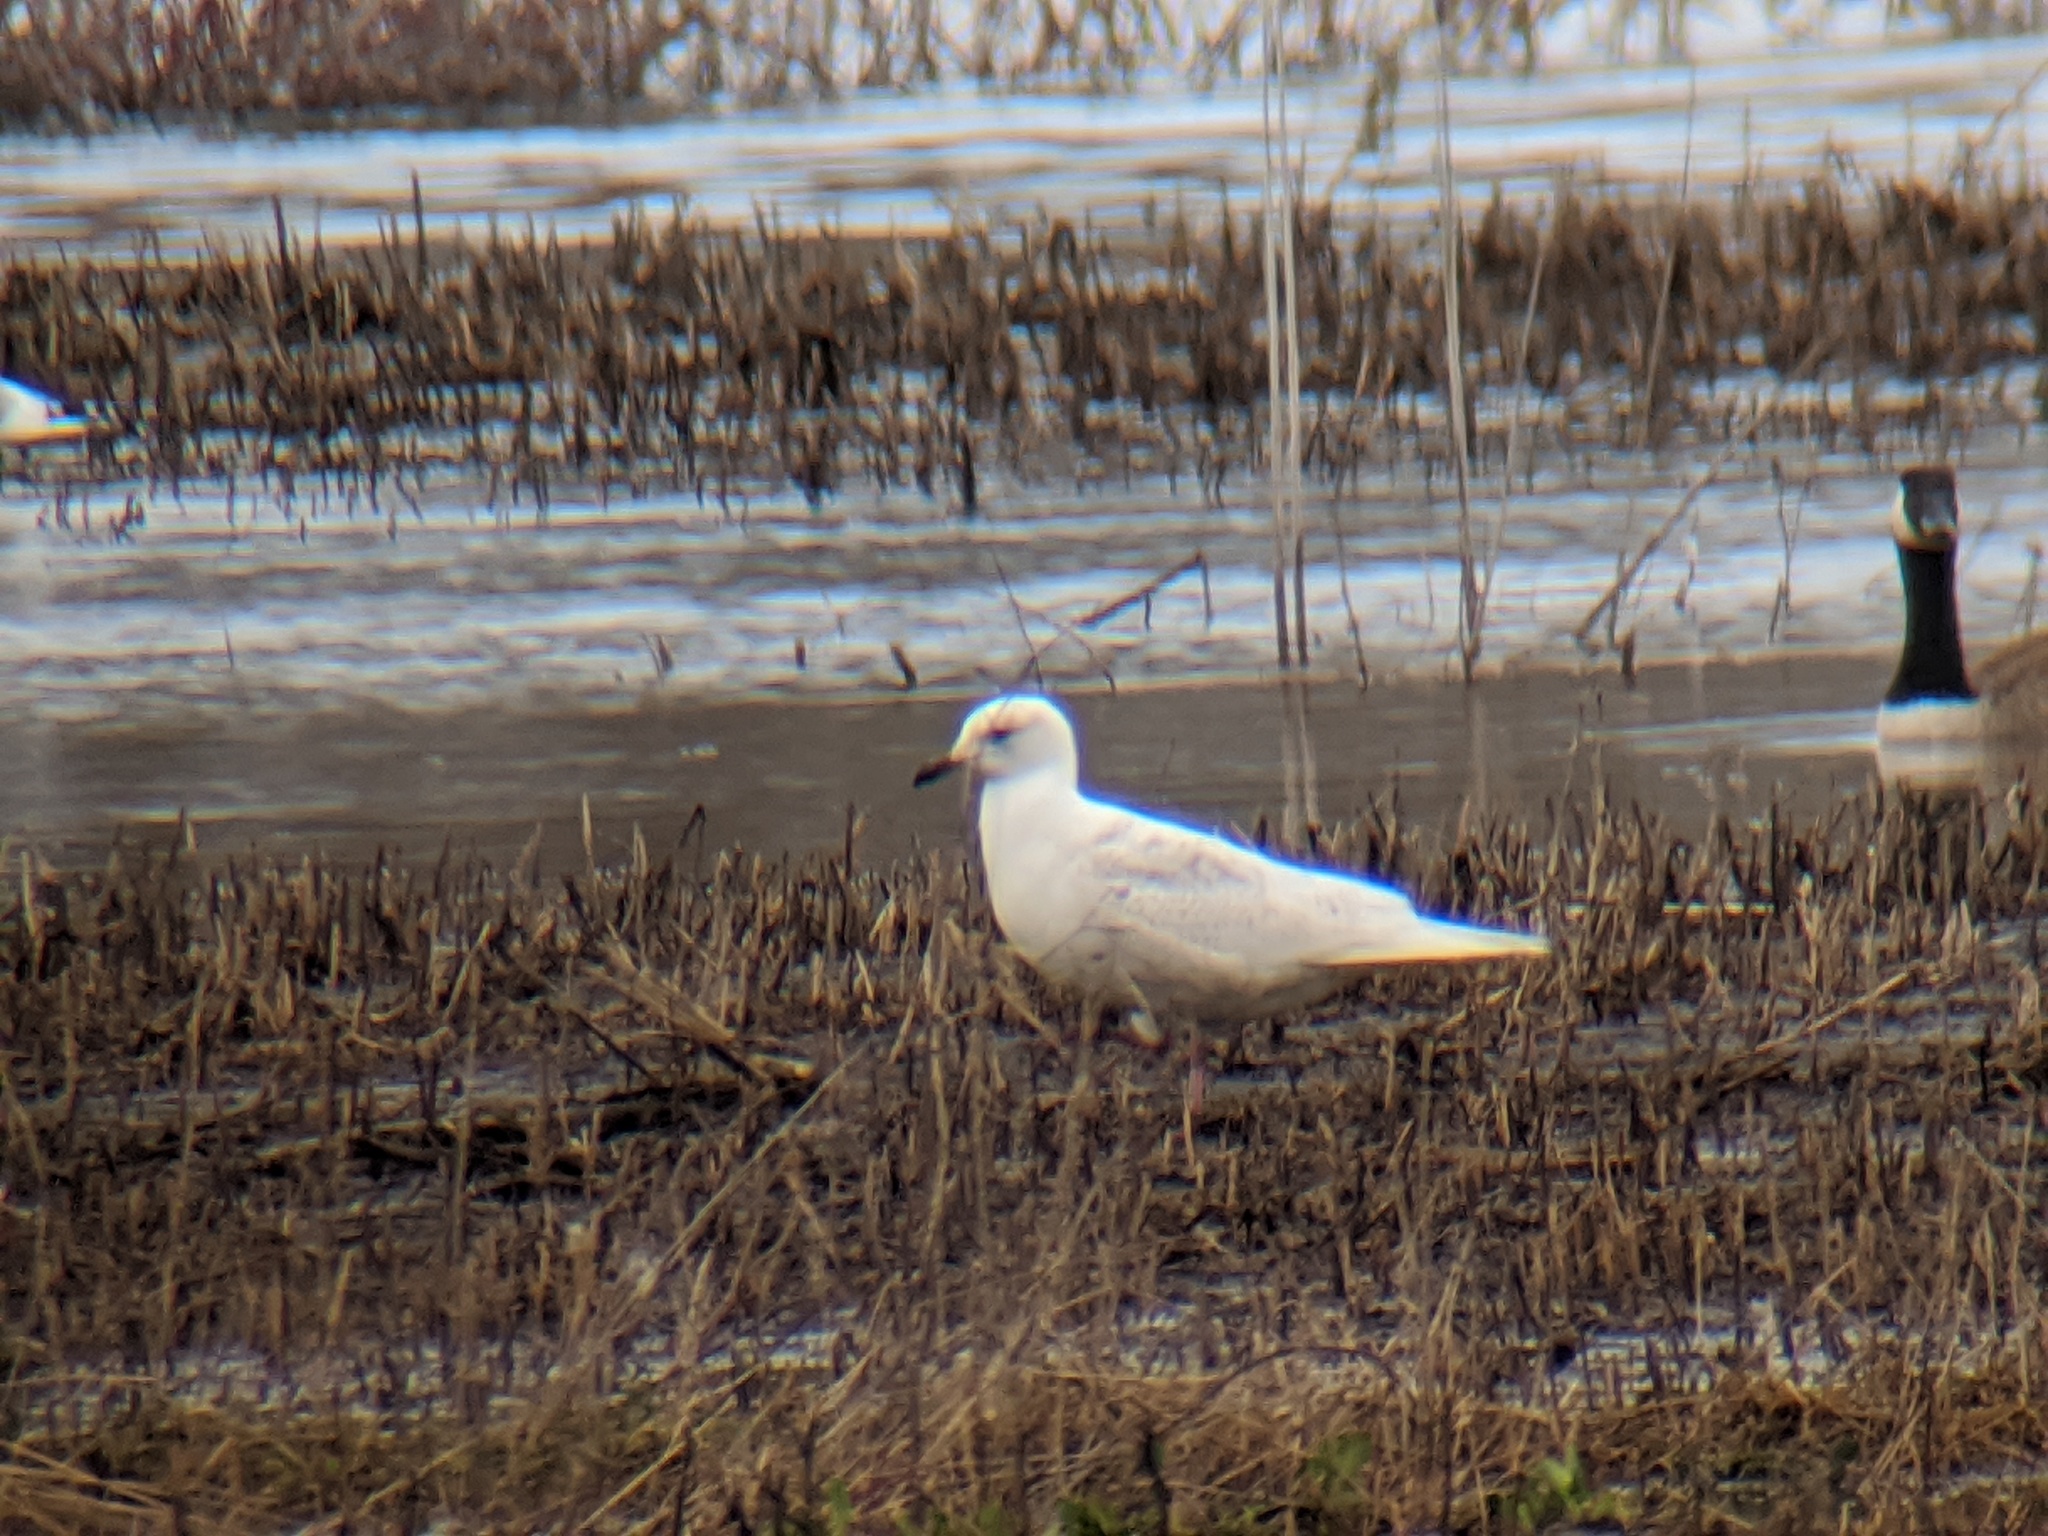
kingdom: Animalia
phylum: Chordata
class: Aves
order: Charadriiformes
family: Laridae
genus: Larus
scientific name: Larus glaucoides
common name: Iceland gull
